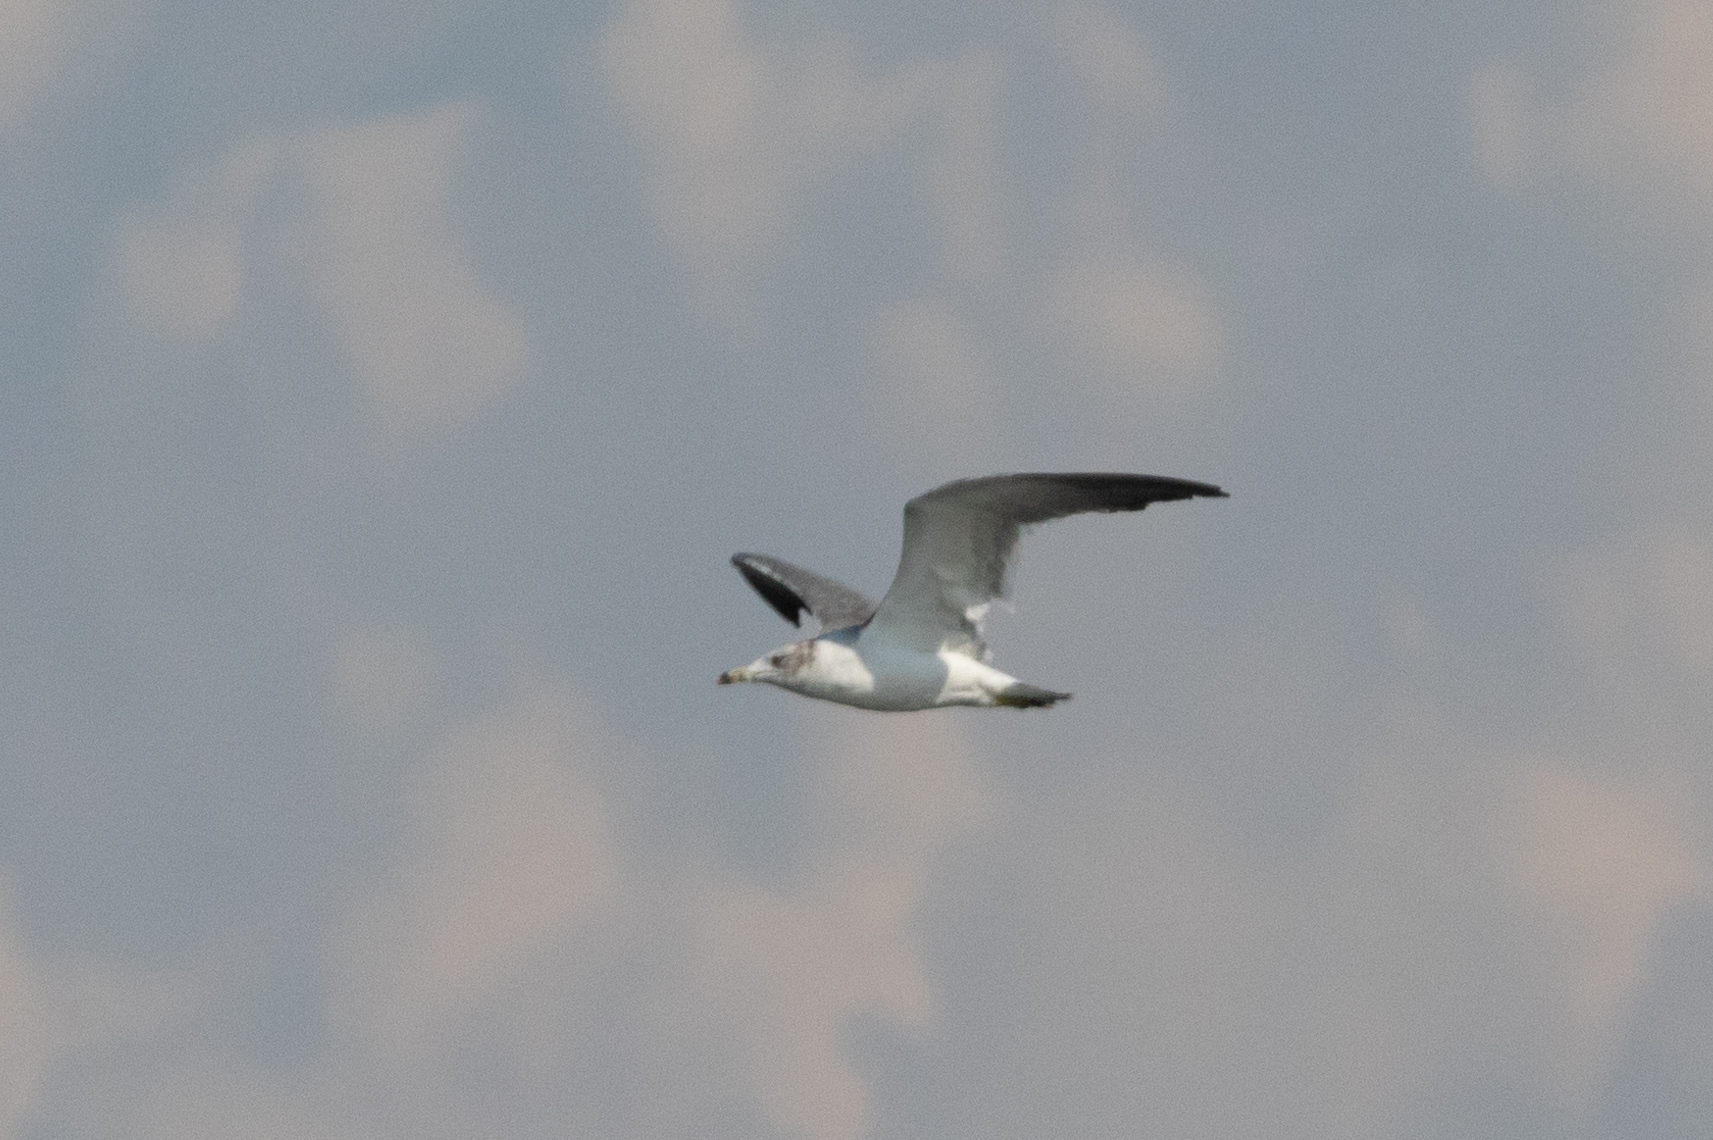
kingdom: Animalia
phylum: Chordata
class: Aves
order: Charadriiformes
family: Laridae
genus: Larus
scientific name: Larus crassirostris
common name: Black-tailed gull
